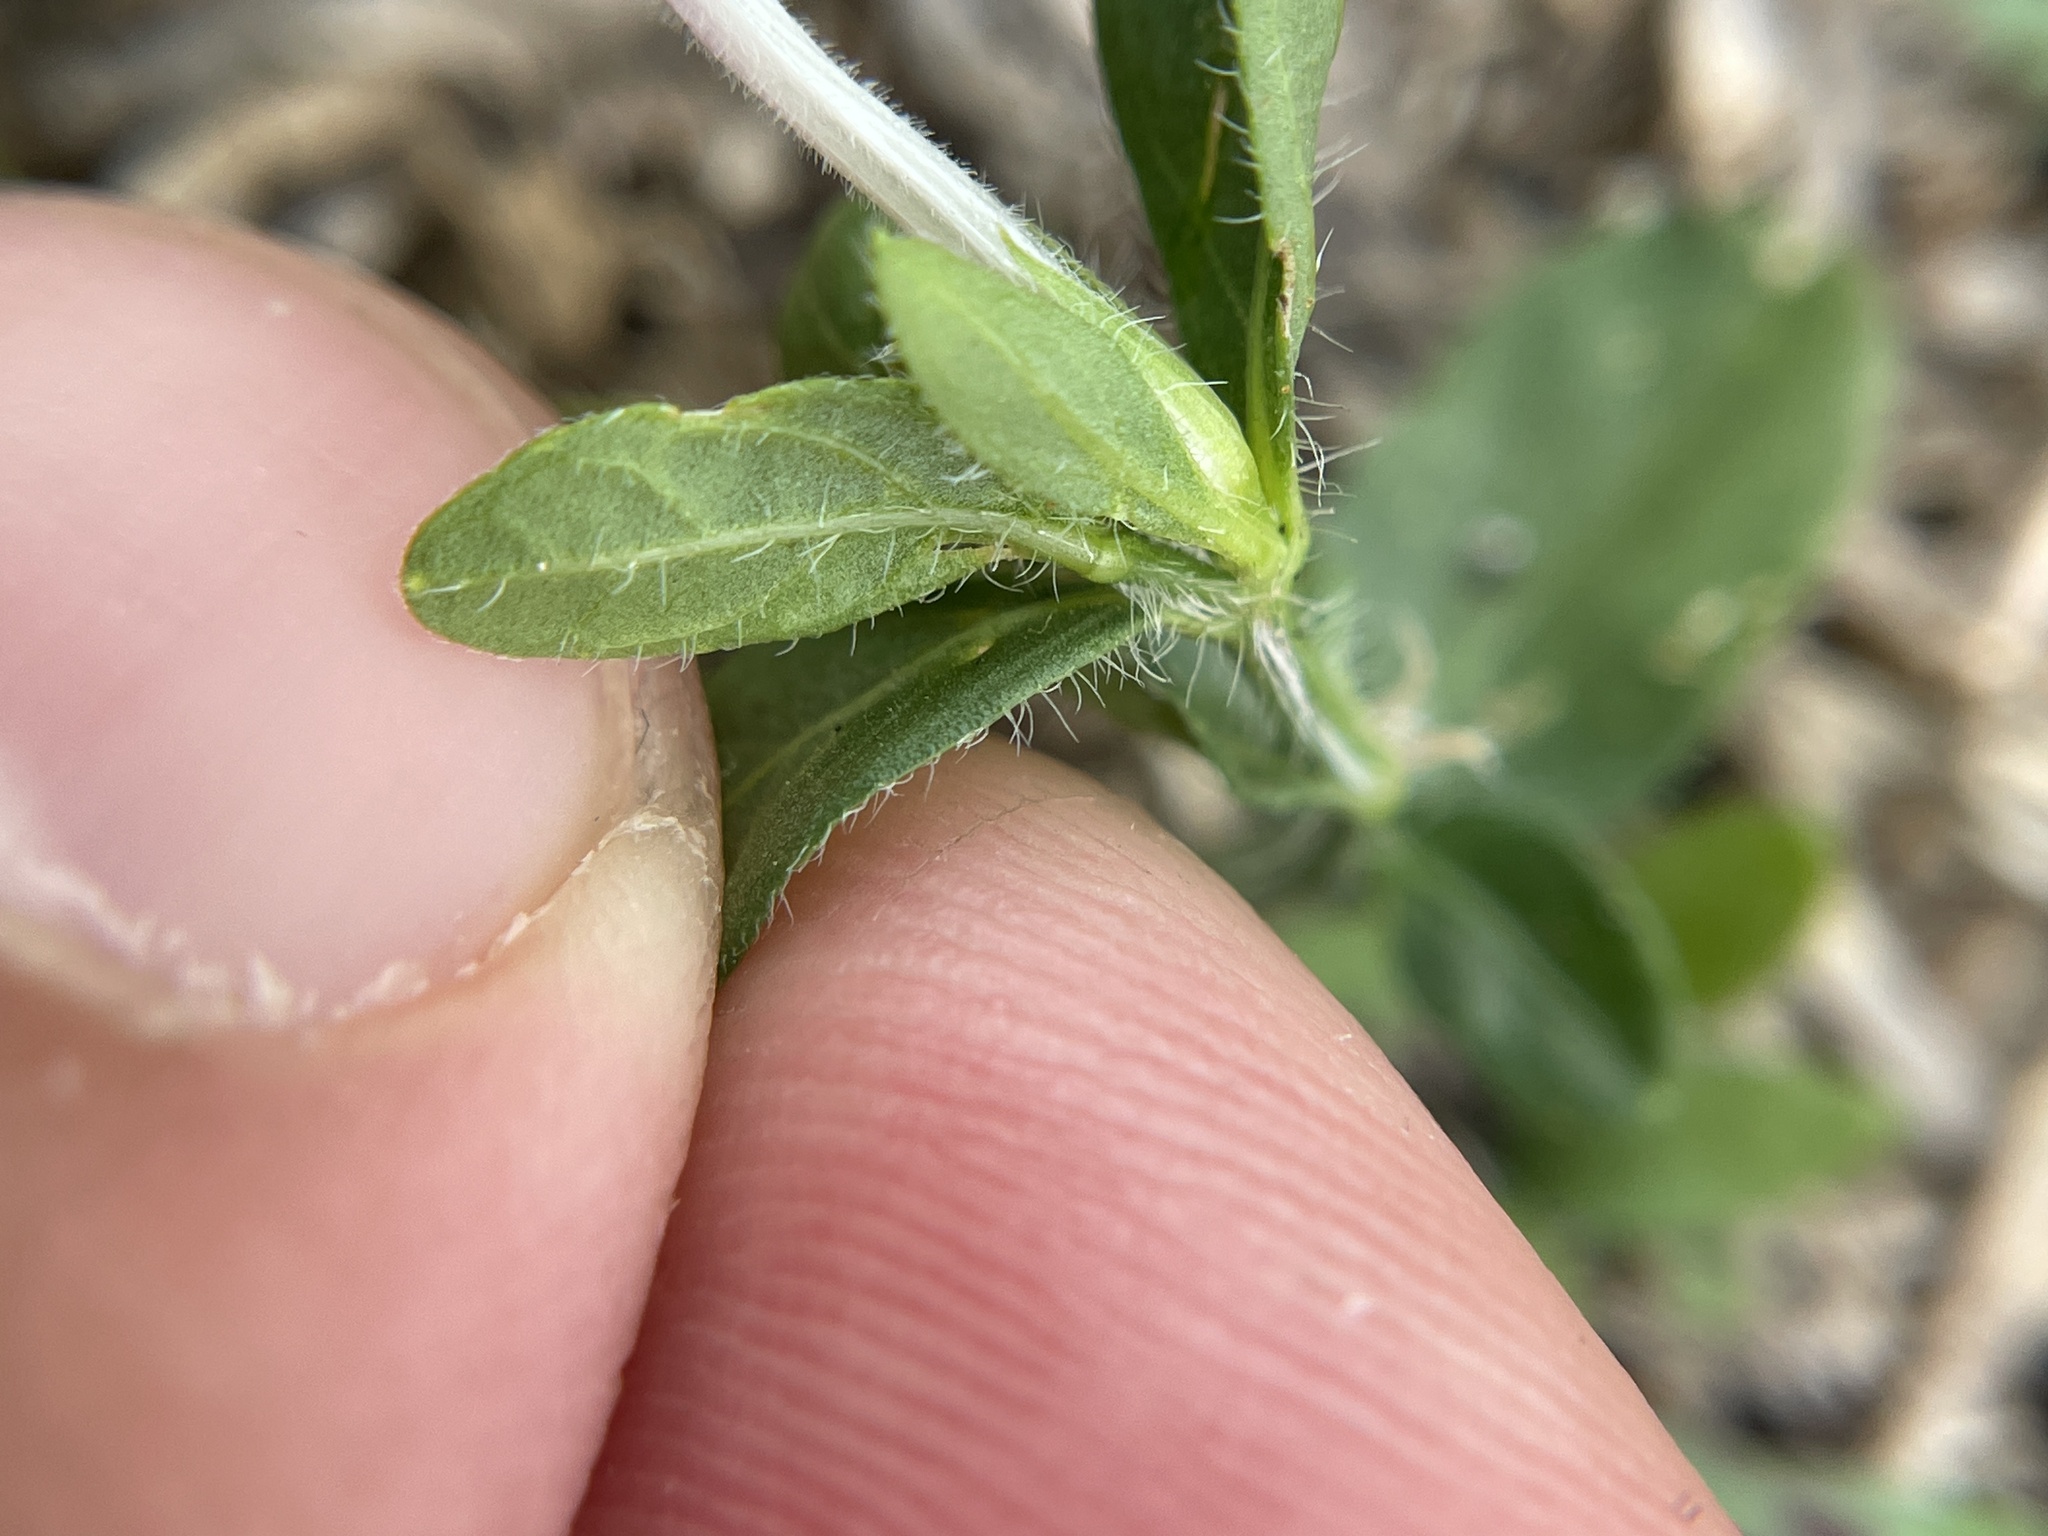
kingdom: Plantae
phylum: Tracheophyta
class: Magnoliopsida
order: Lamiales
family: Acanthaceae
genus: Justicia
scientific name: Justicia pilosella
